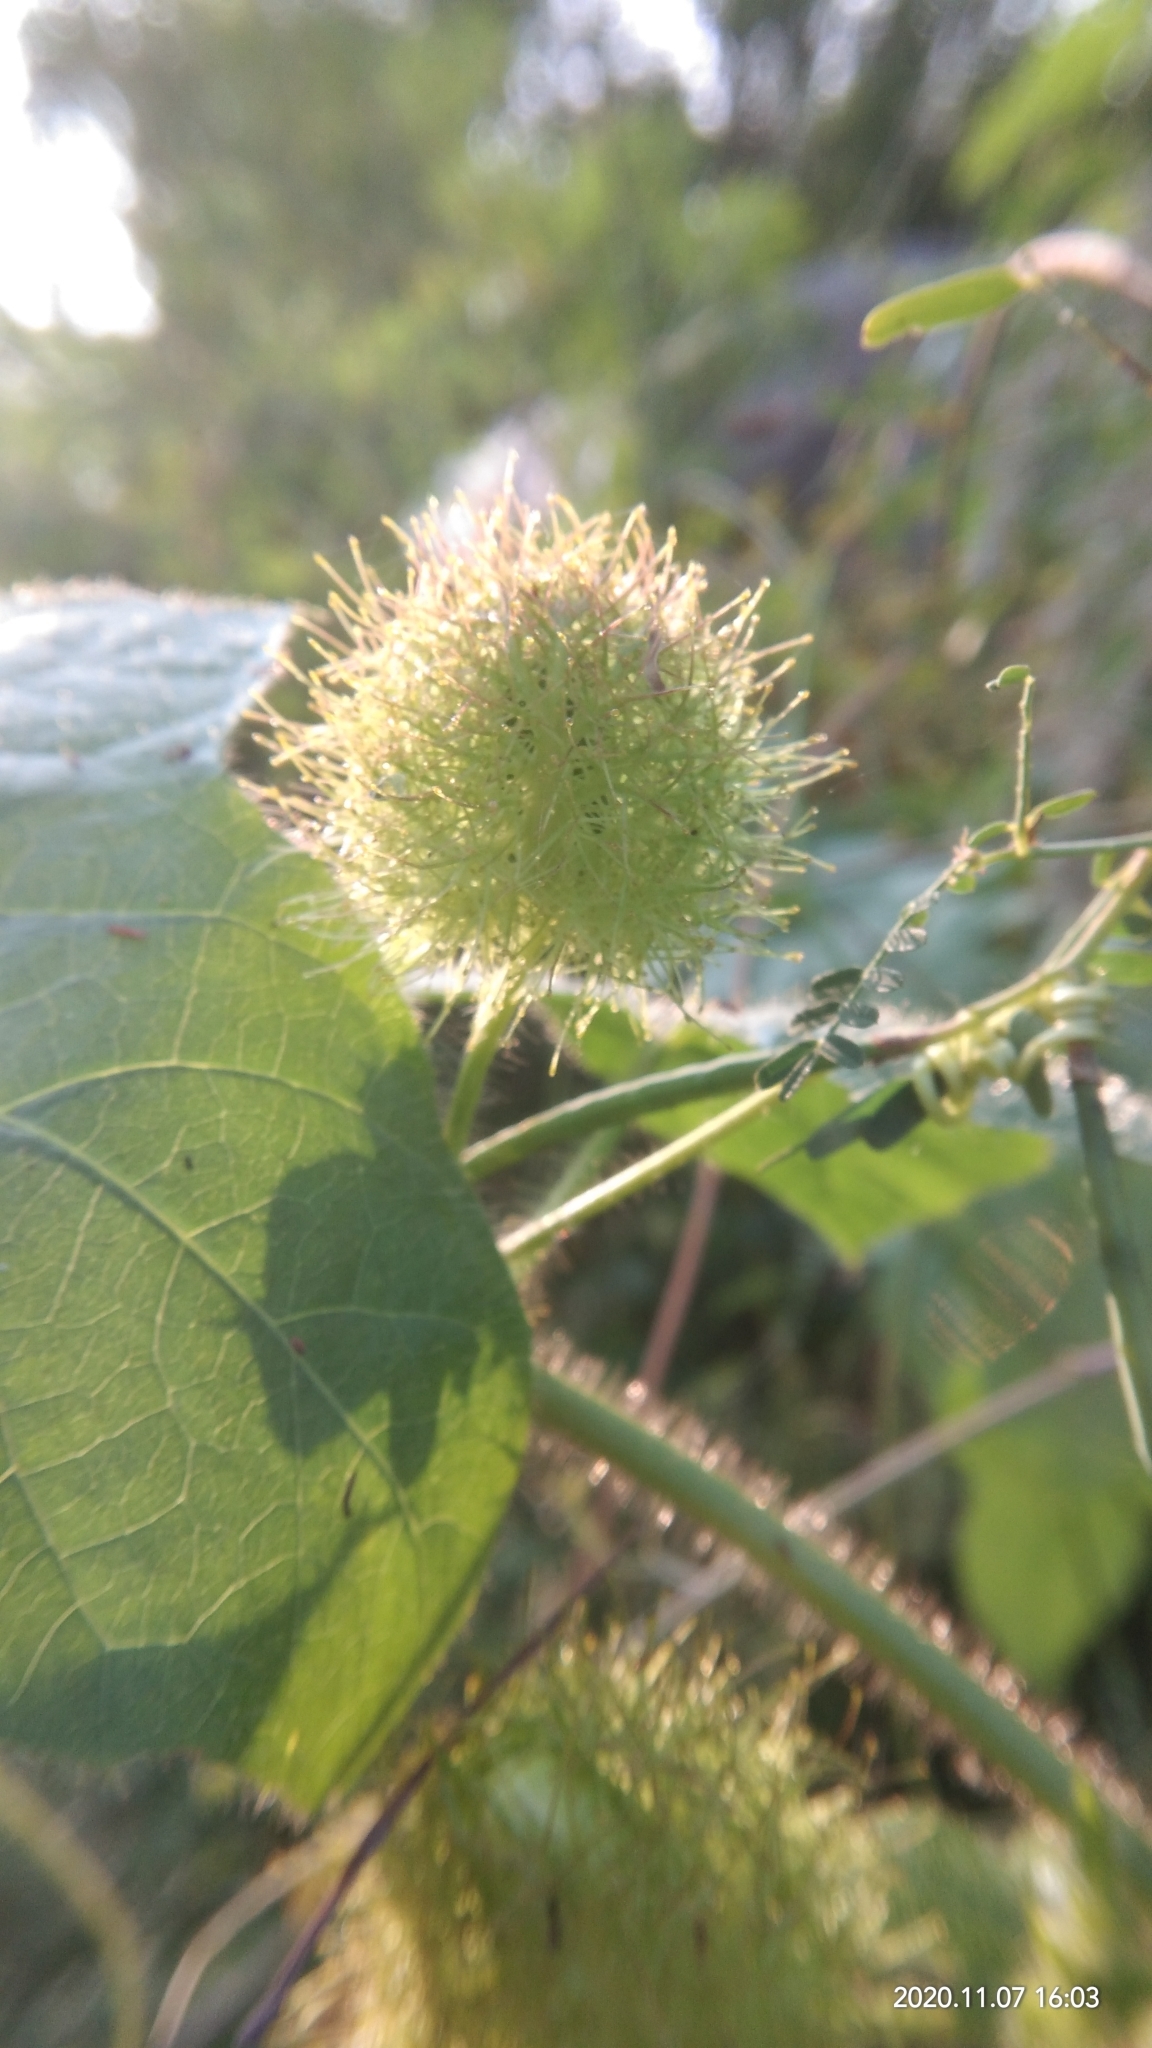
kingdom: Plantae
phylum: Tracheophyta
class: Magnoliopsida
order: Malpighiales
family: Passifloraceae
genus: Passiflora
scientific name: Passiflora foetida
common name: Fetid passionflower
